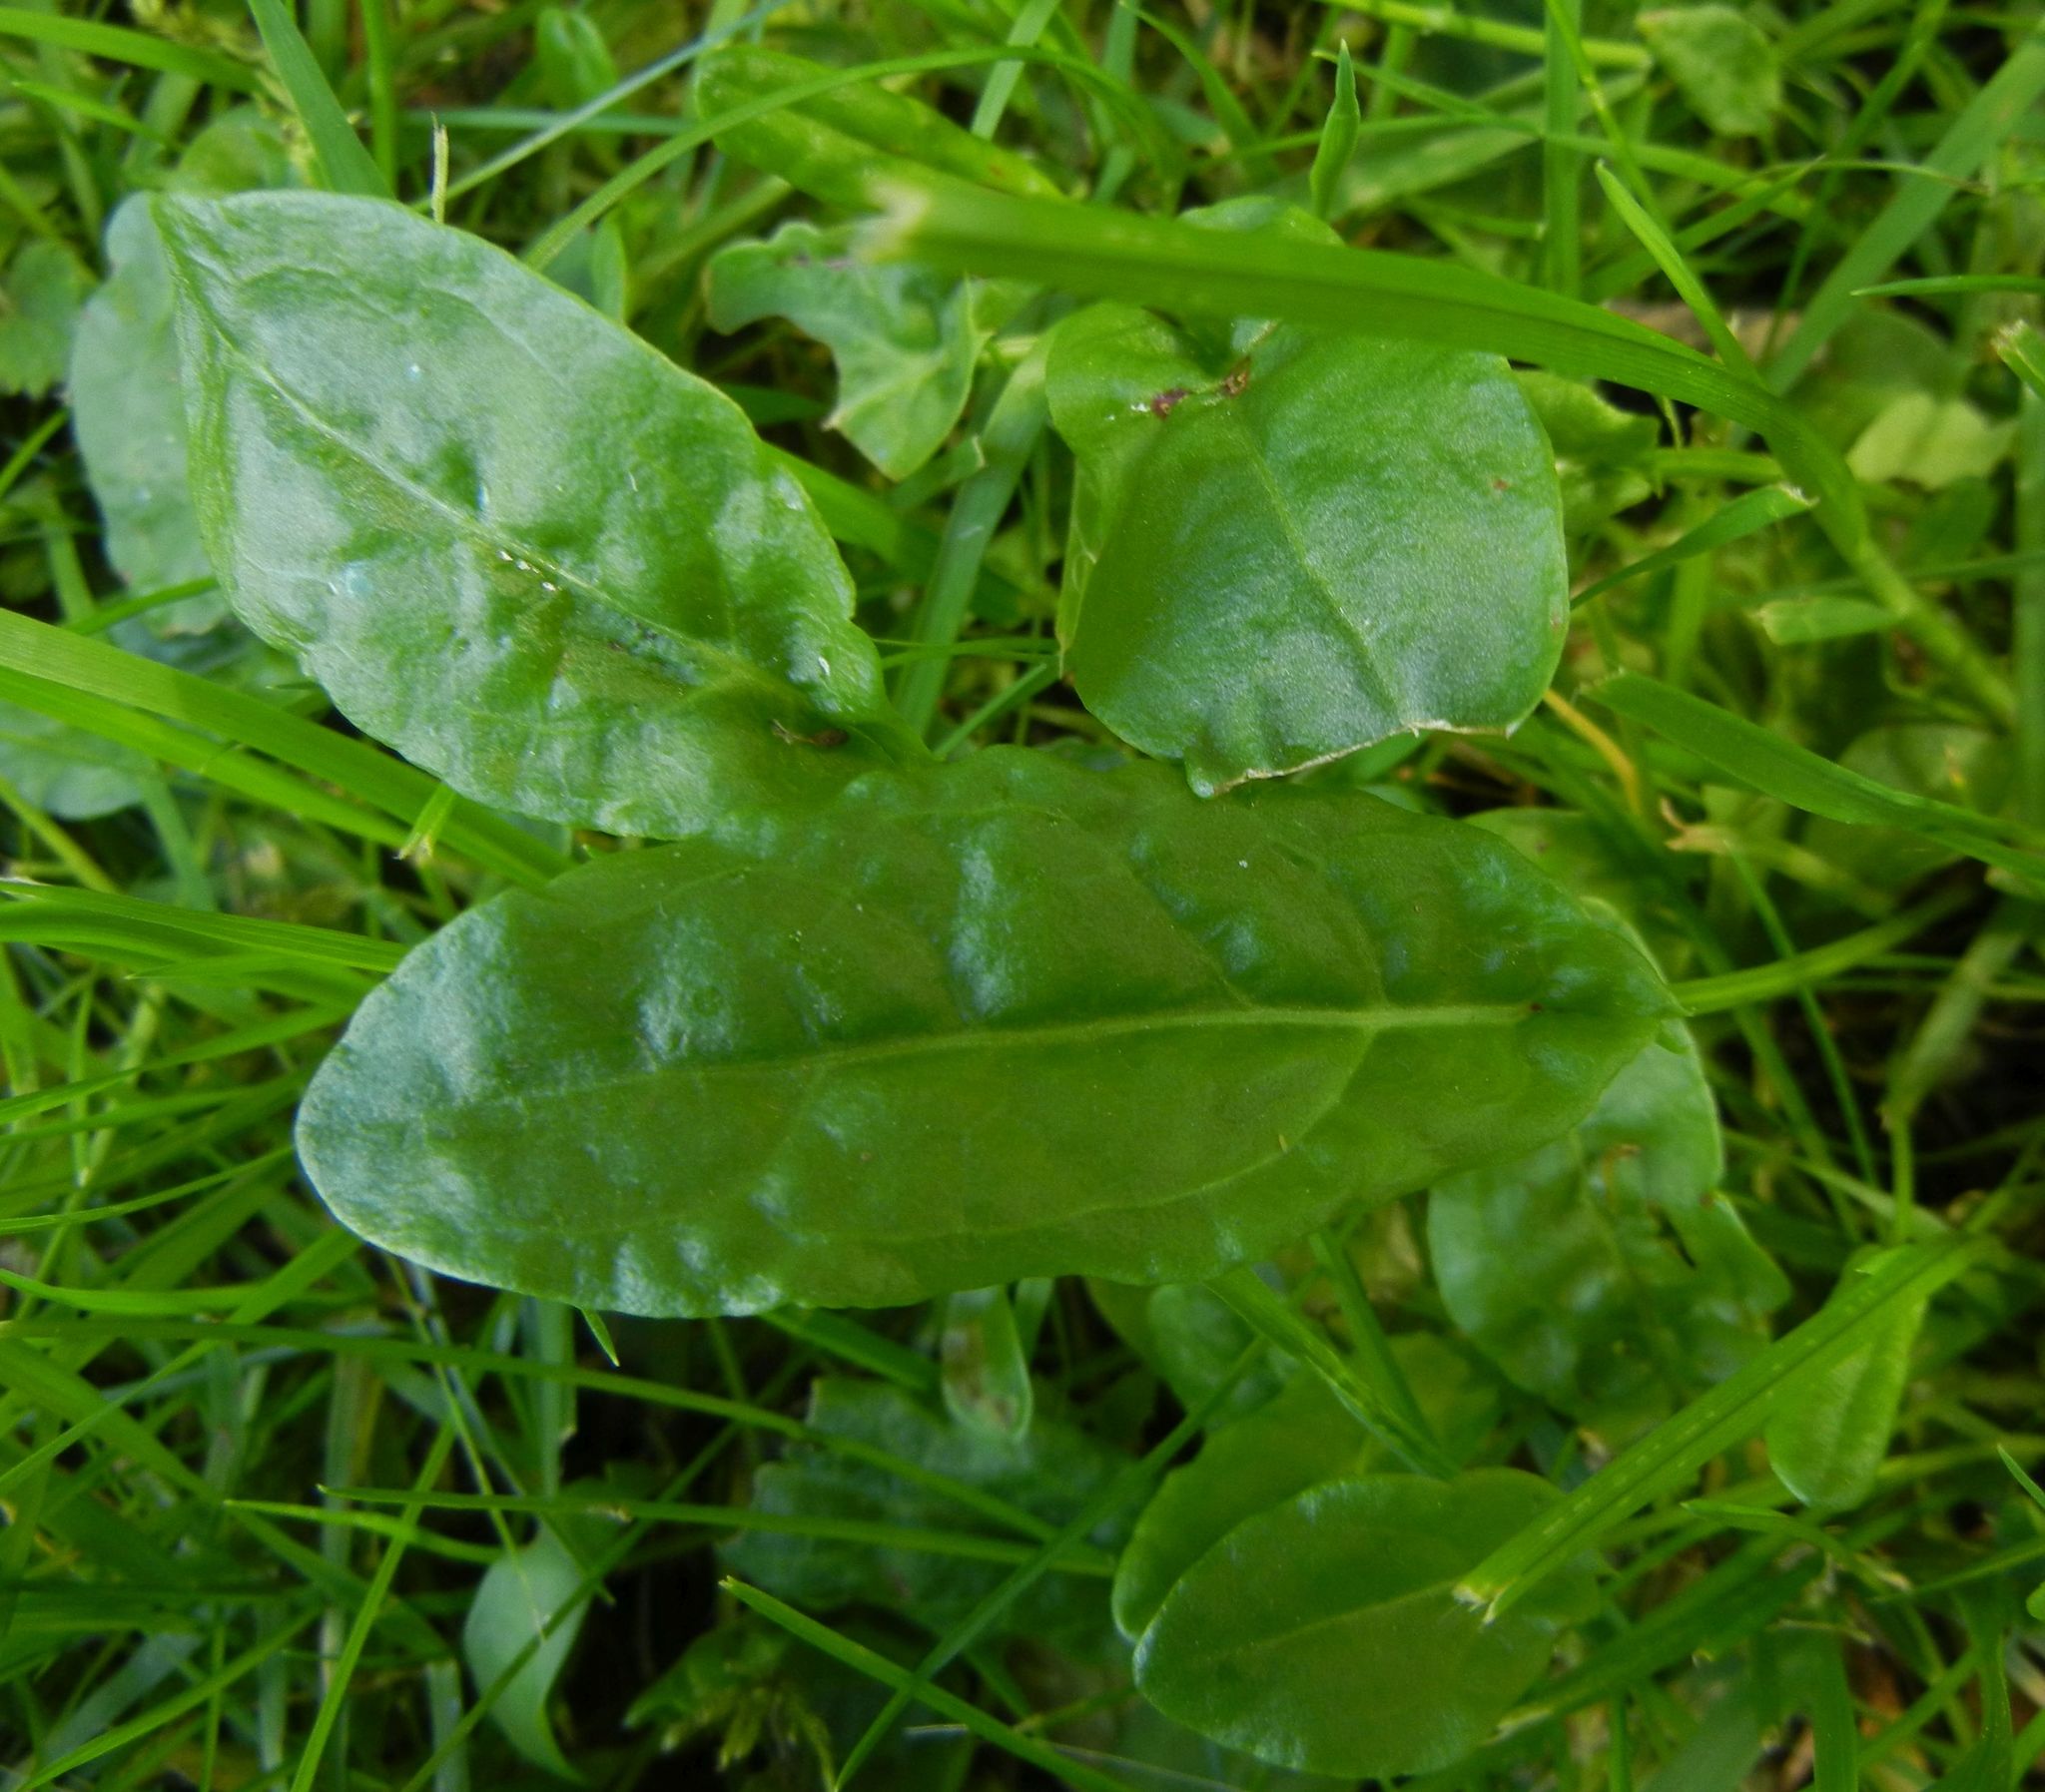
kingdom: Plantae
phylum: Tracheophyta
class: Magnoliopsida
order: Caryophyllales
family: Polygonaceae
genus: Rumex
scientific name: Rumex acetosa
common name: Garden sorrel
